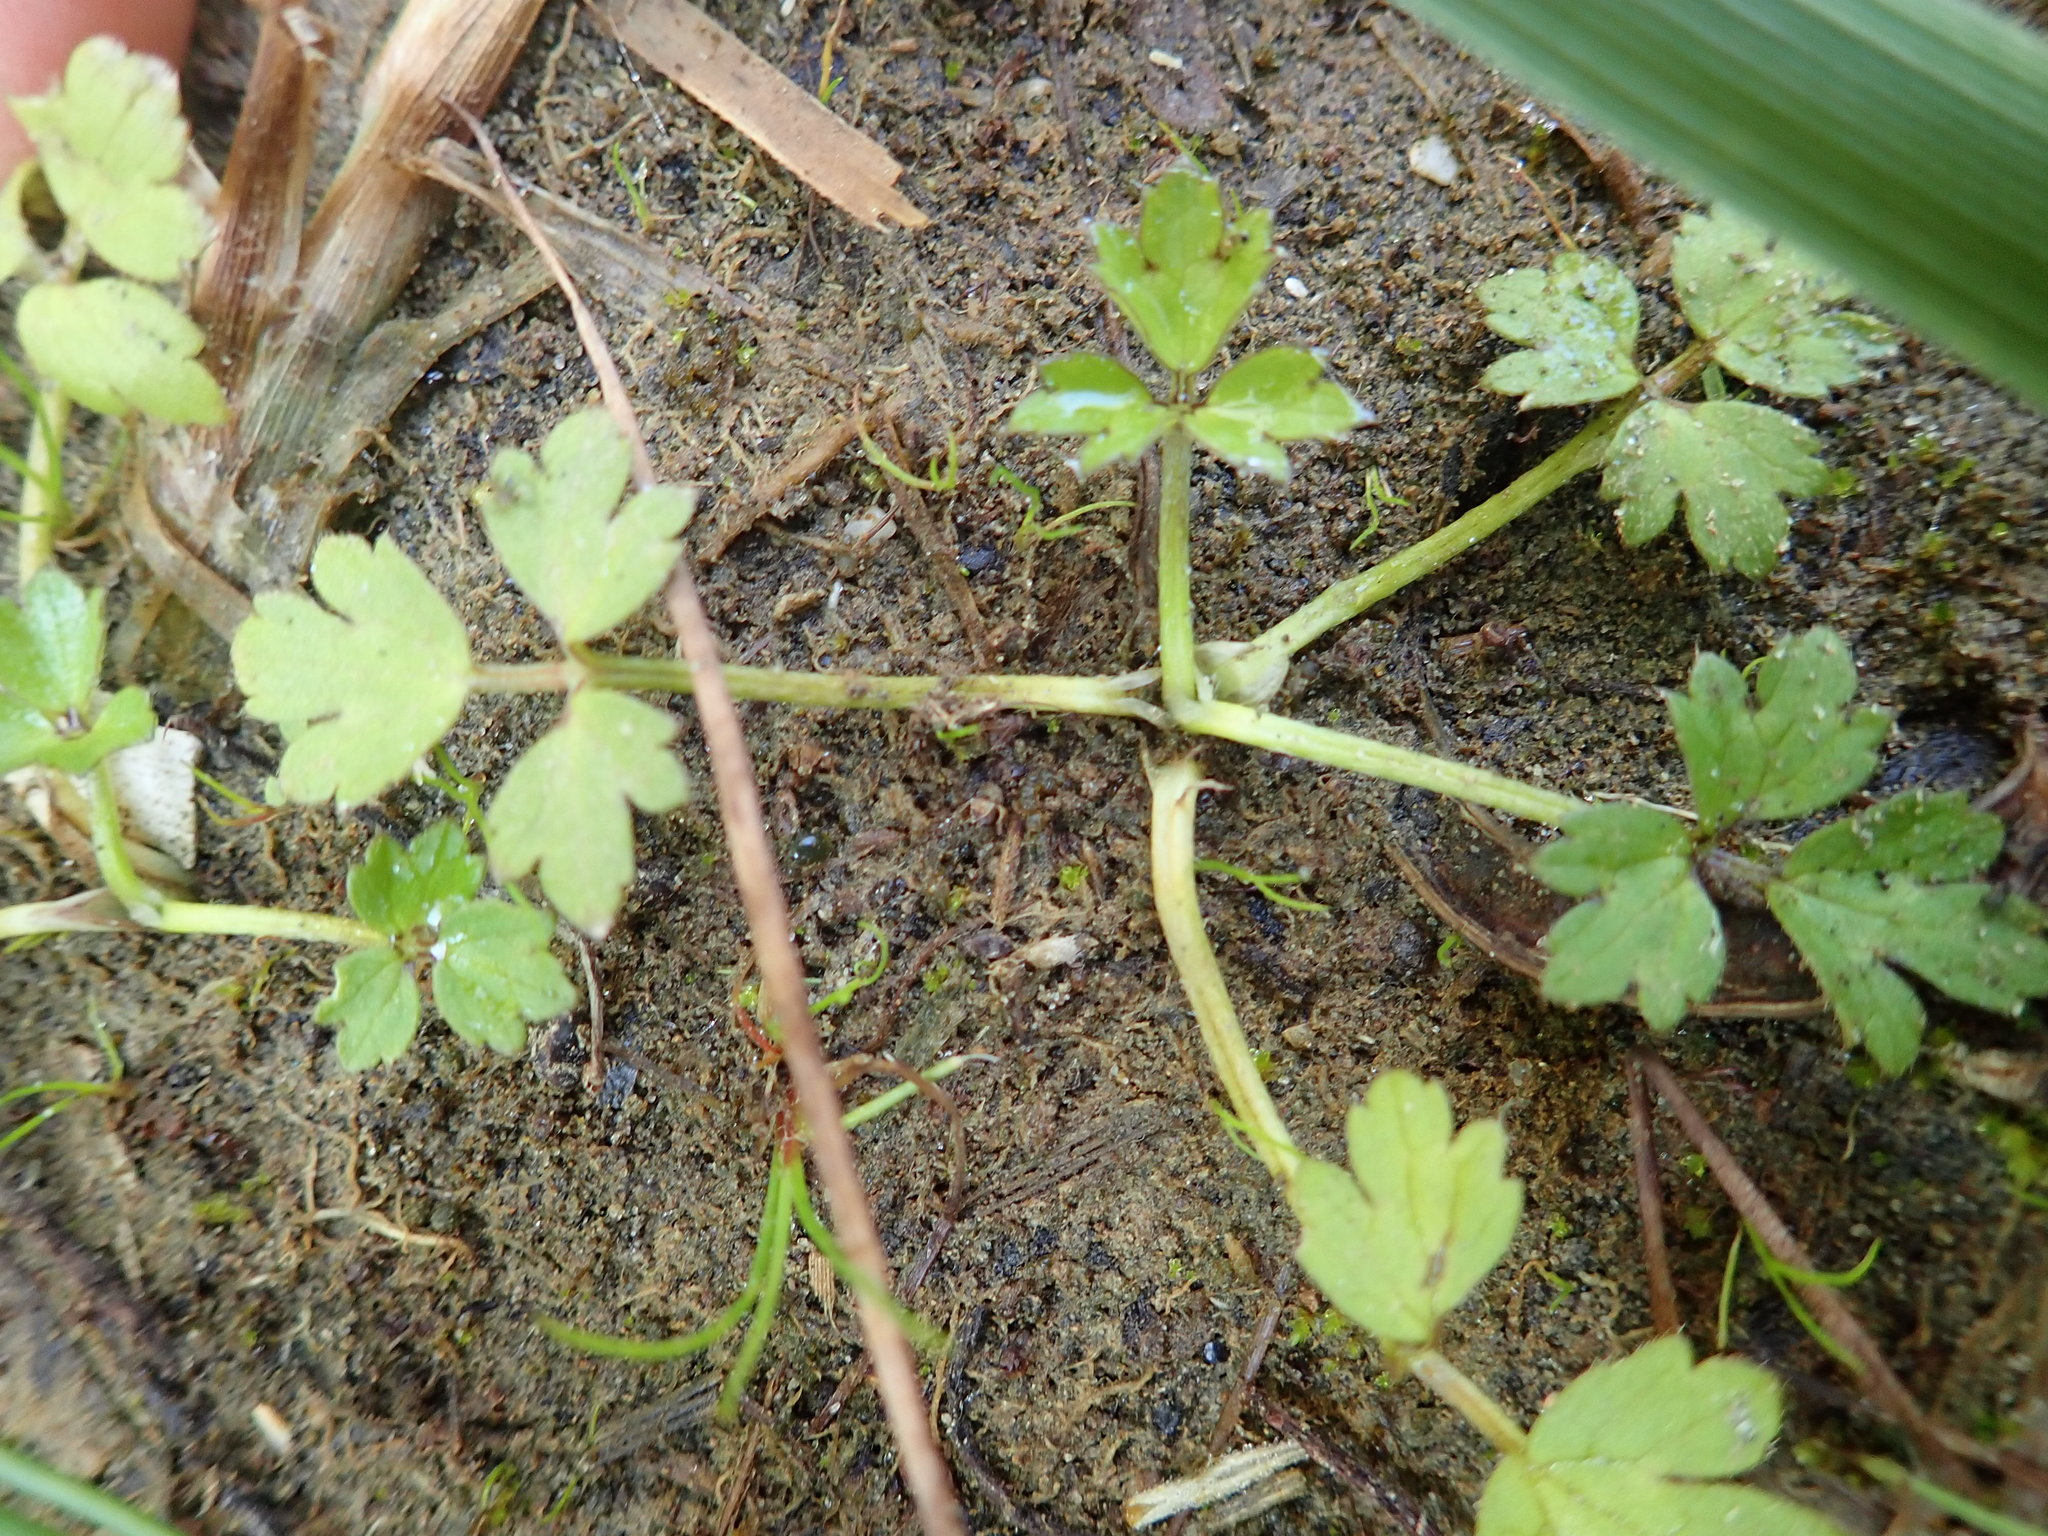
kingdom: Plantae
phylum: Tracheophyta
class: Magnoliopsida
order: Ranunculales
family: Ranunculaceae
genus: Ranunculus
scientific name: Ranunculus repens
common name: Creeping buttercup
